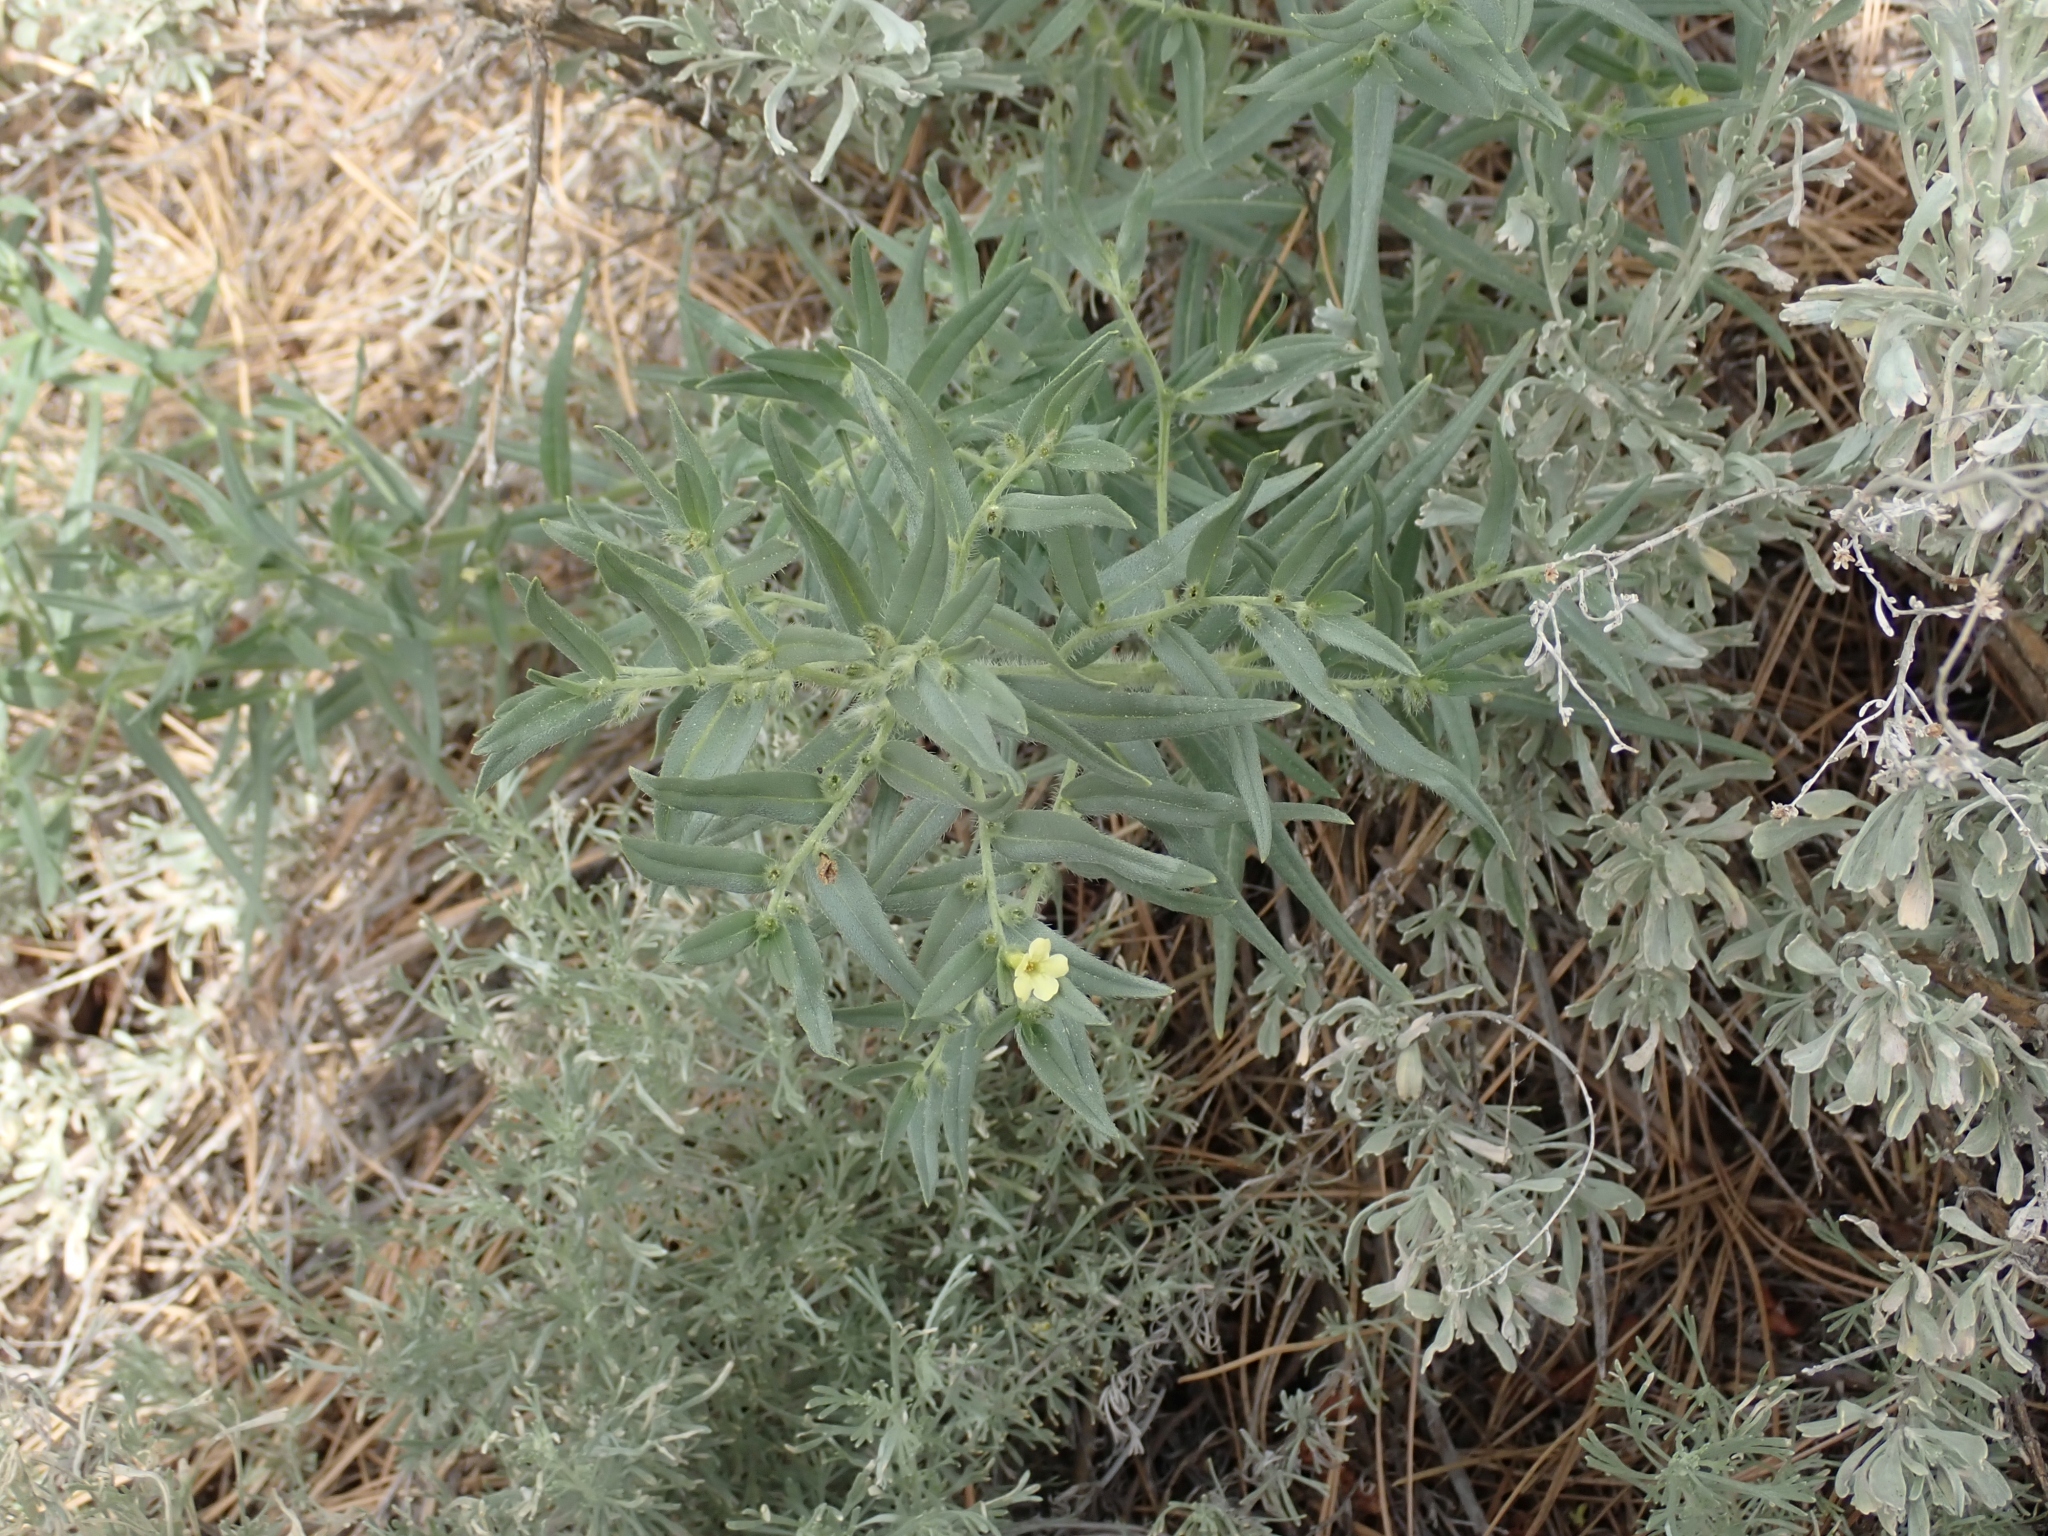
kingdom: Plantae
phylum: Tracheophyta
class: Magnoliopsida
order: Boraginales
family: Boraginaceae
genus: Lithospermum
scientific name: Lithospermum ruderale
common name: Western gromwell
